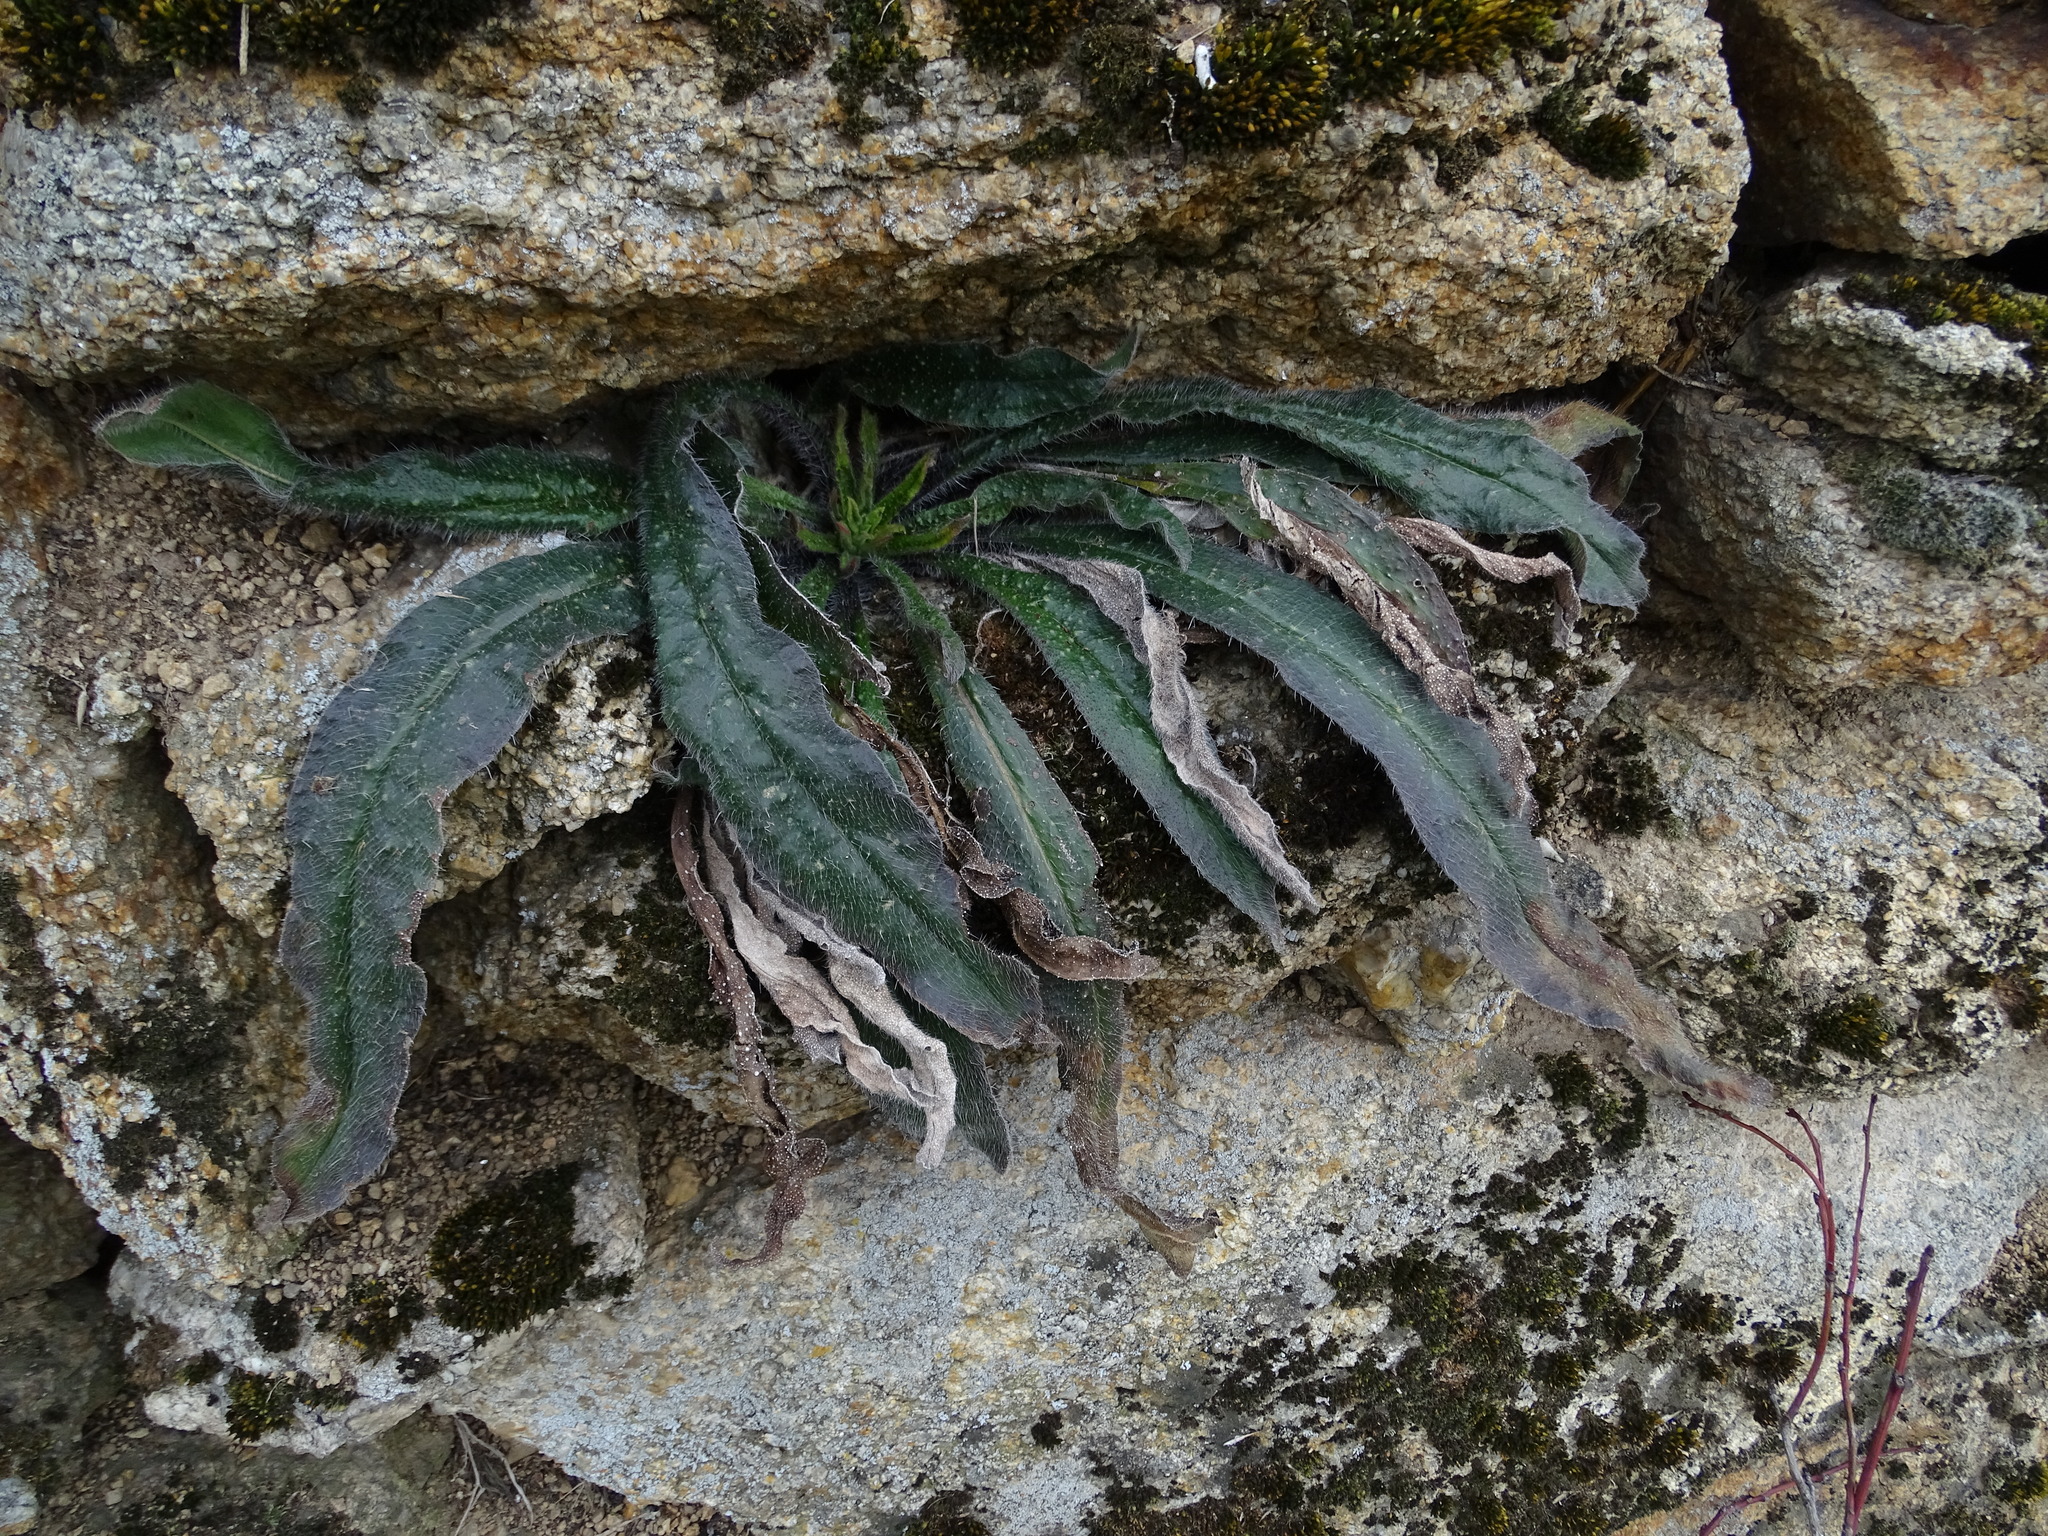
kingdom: Plantae
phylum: Tracheophyta
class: Magnoliopsida
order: Boraginales
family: Boraginaceae
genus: Echium
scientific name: Echium vulgare
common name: Common viper's bugloss
